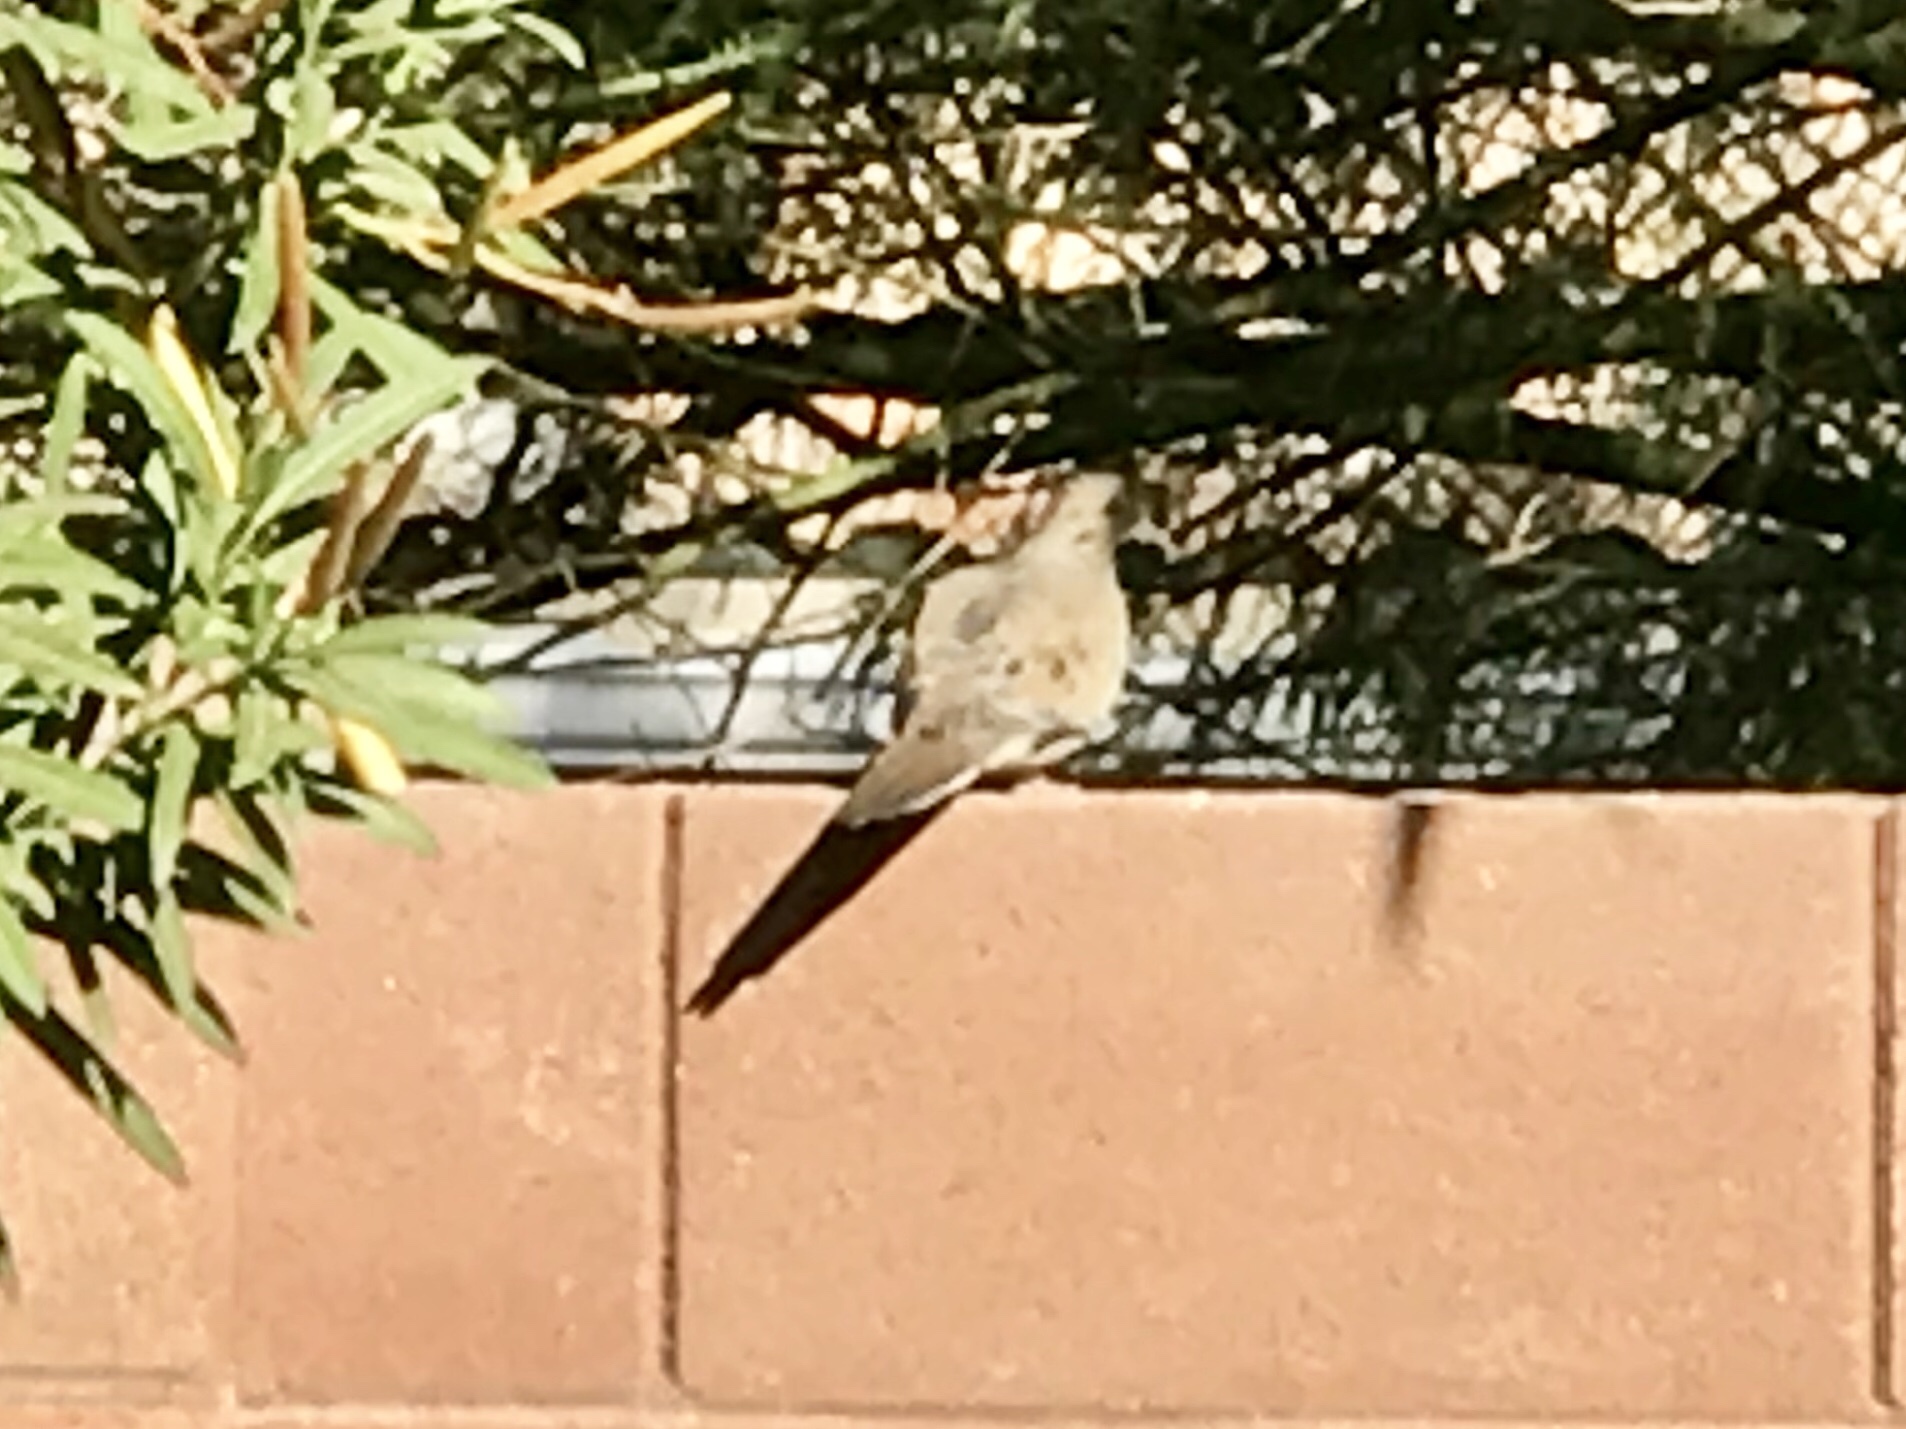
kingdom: Animalia
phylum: Chordata
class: Aves
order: Columbiformes
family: Columbidae
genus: Zenaida
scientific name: Zenaida macroura
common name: Mourning dove
